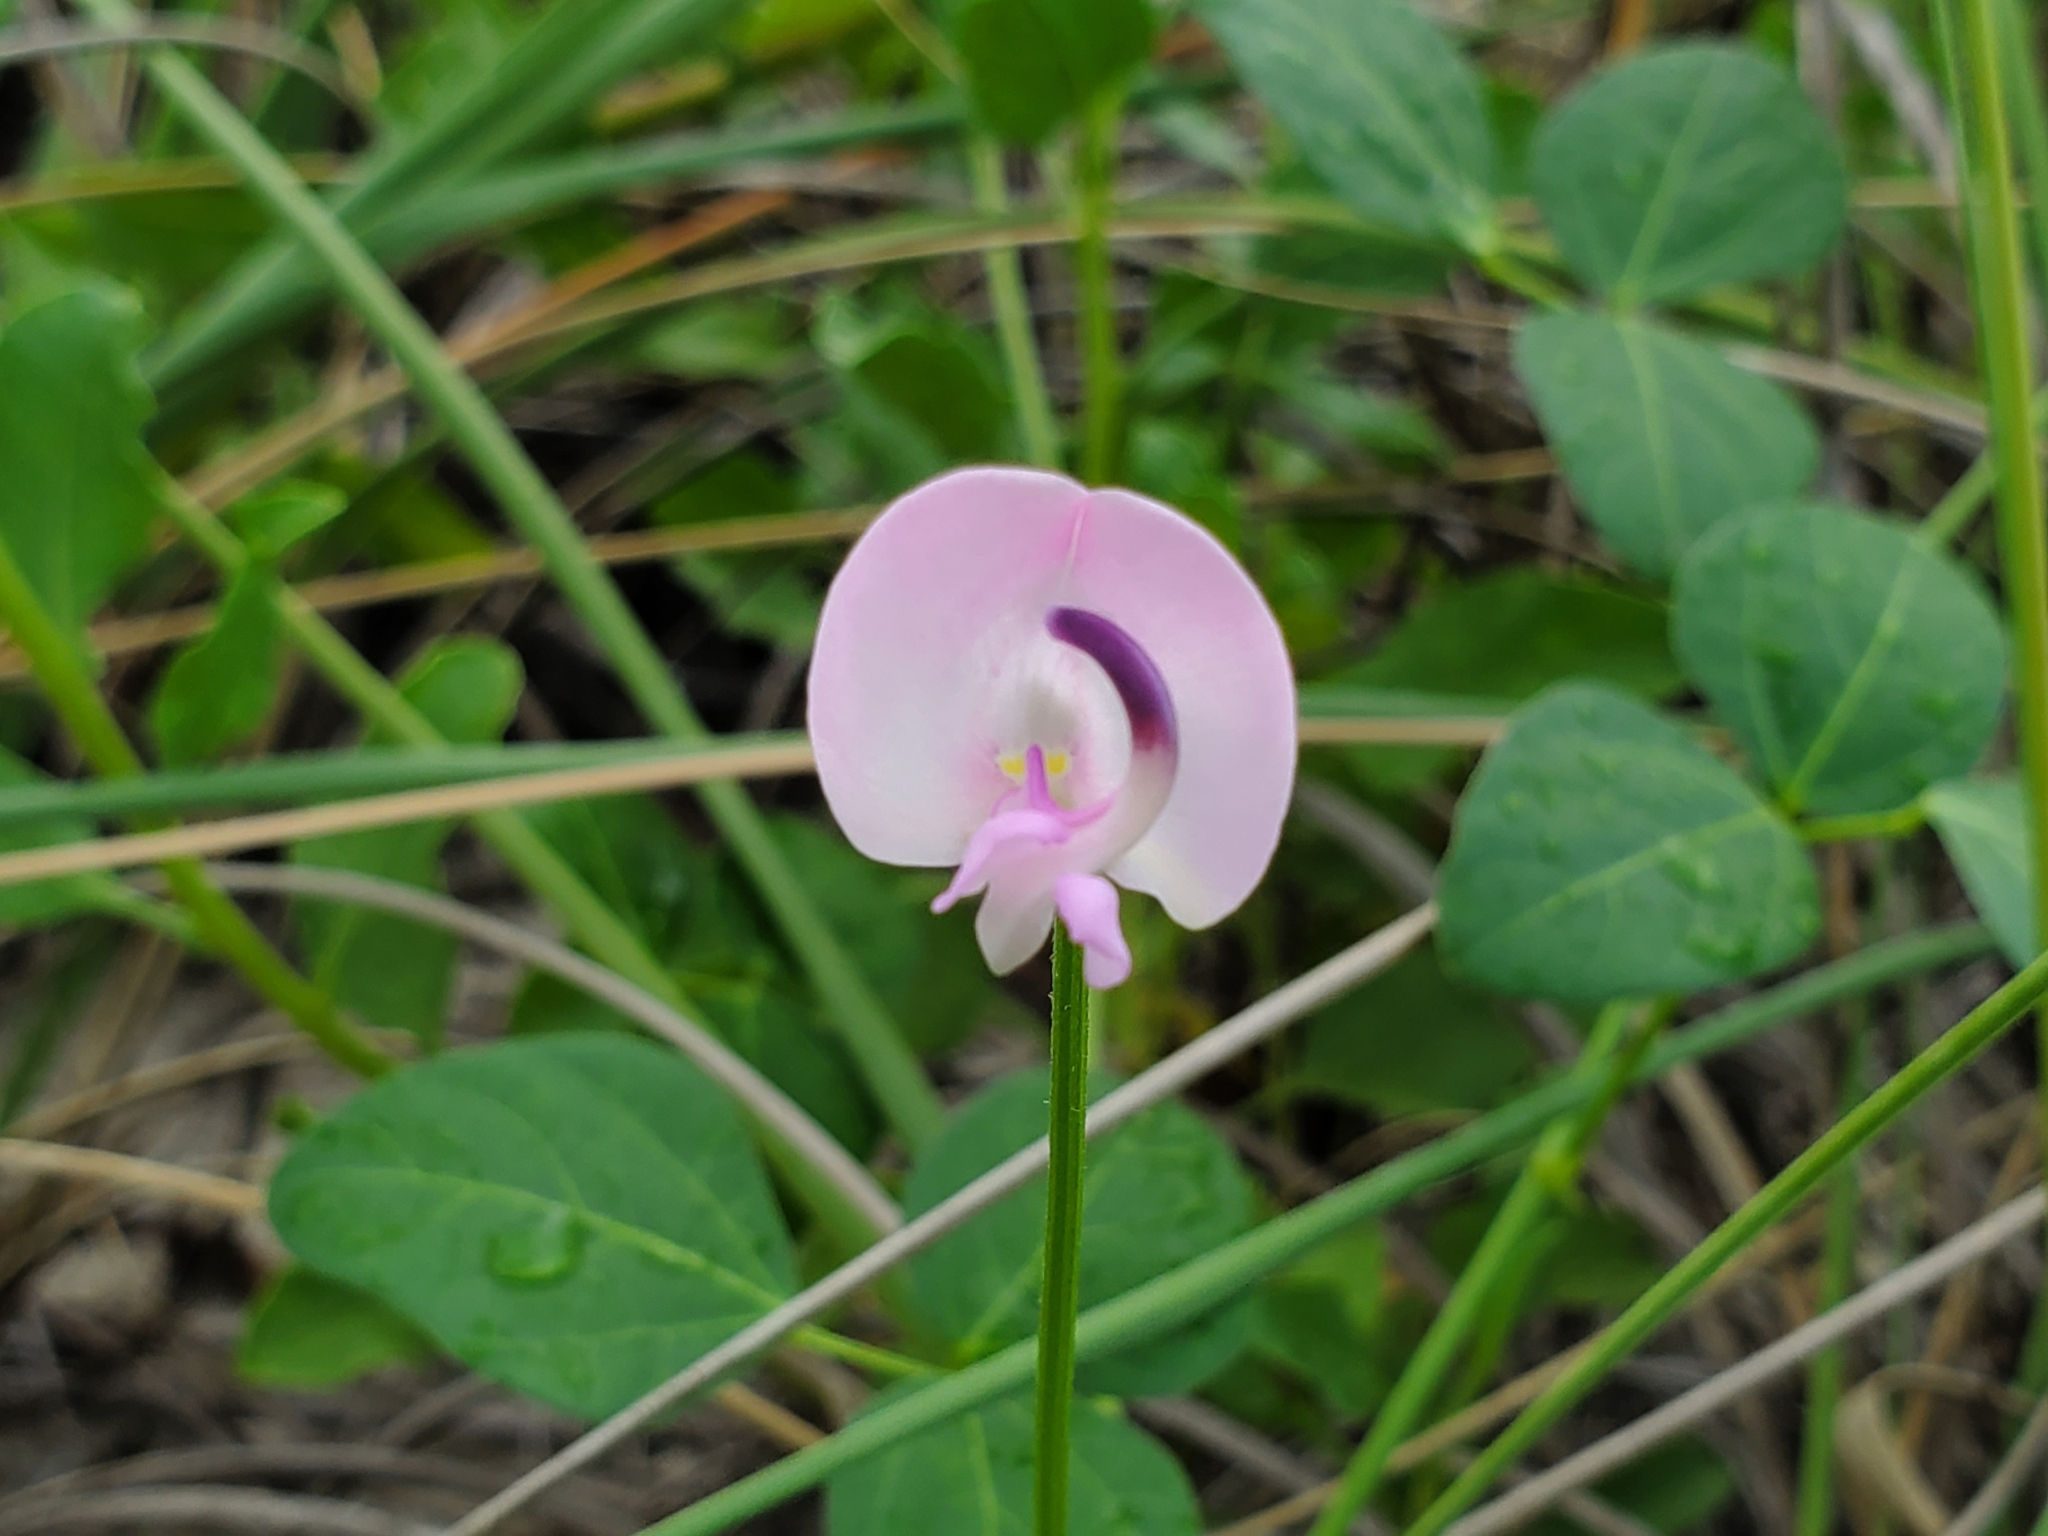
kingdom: Plantae
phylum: Tracheophyta
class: Magnoliopsida
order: Fabales
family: Fabaceae
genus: Strophostyles
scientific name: Strophostyles helvola
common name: Trailing wild bean
